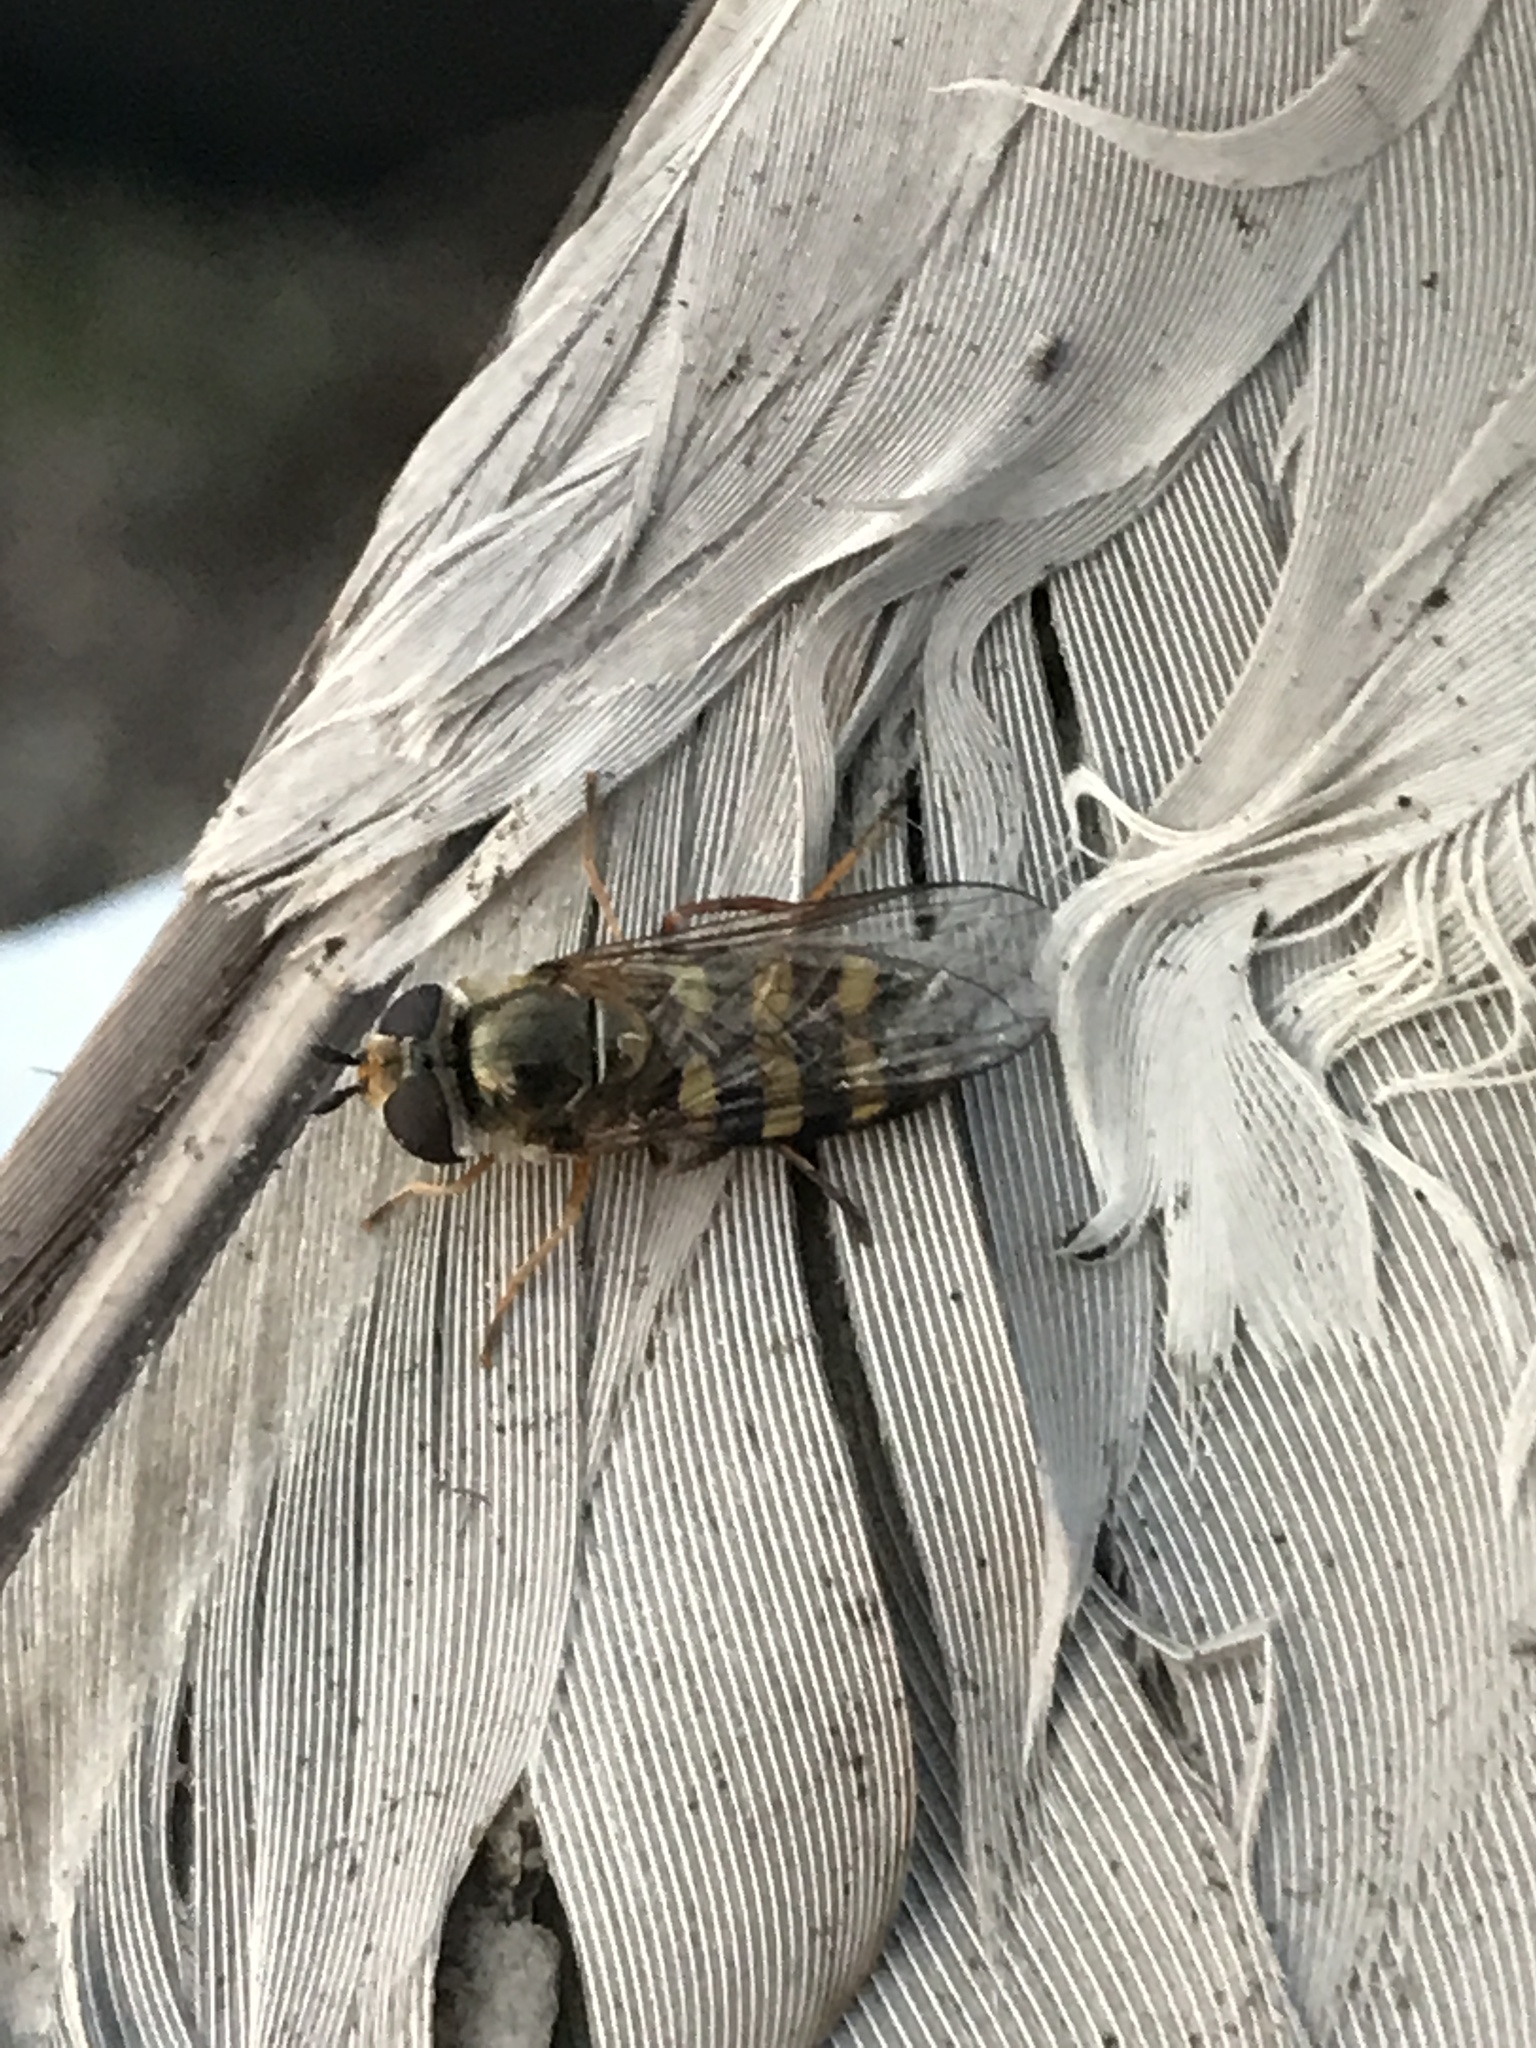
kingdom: Animalia
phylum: Arthropoda
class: Insecta
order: Diptera
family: Syrphidae
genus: Eupeodes
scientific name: Eupeodes
